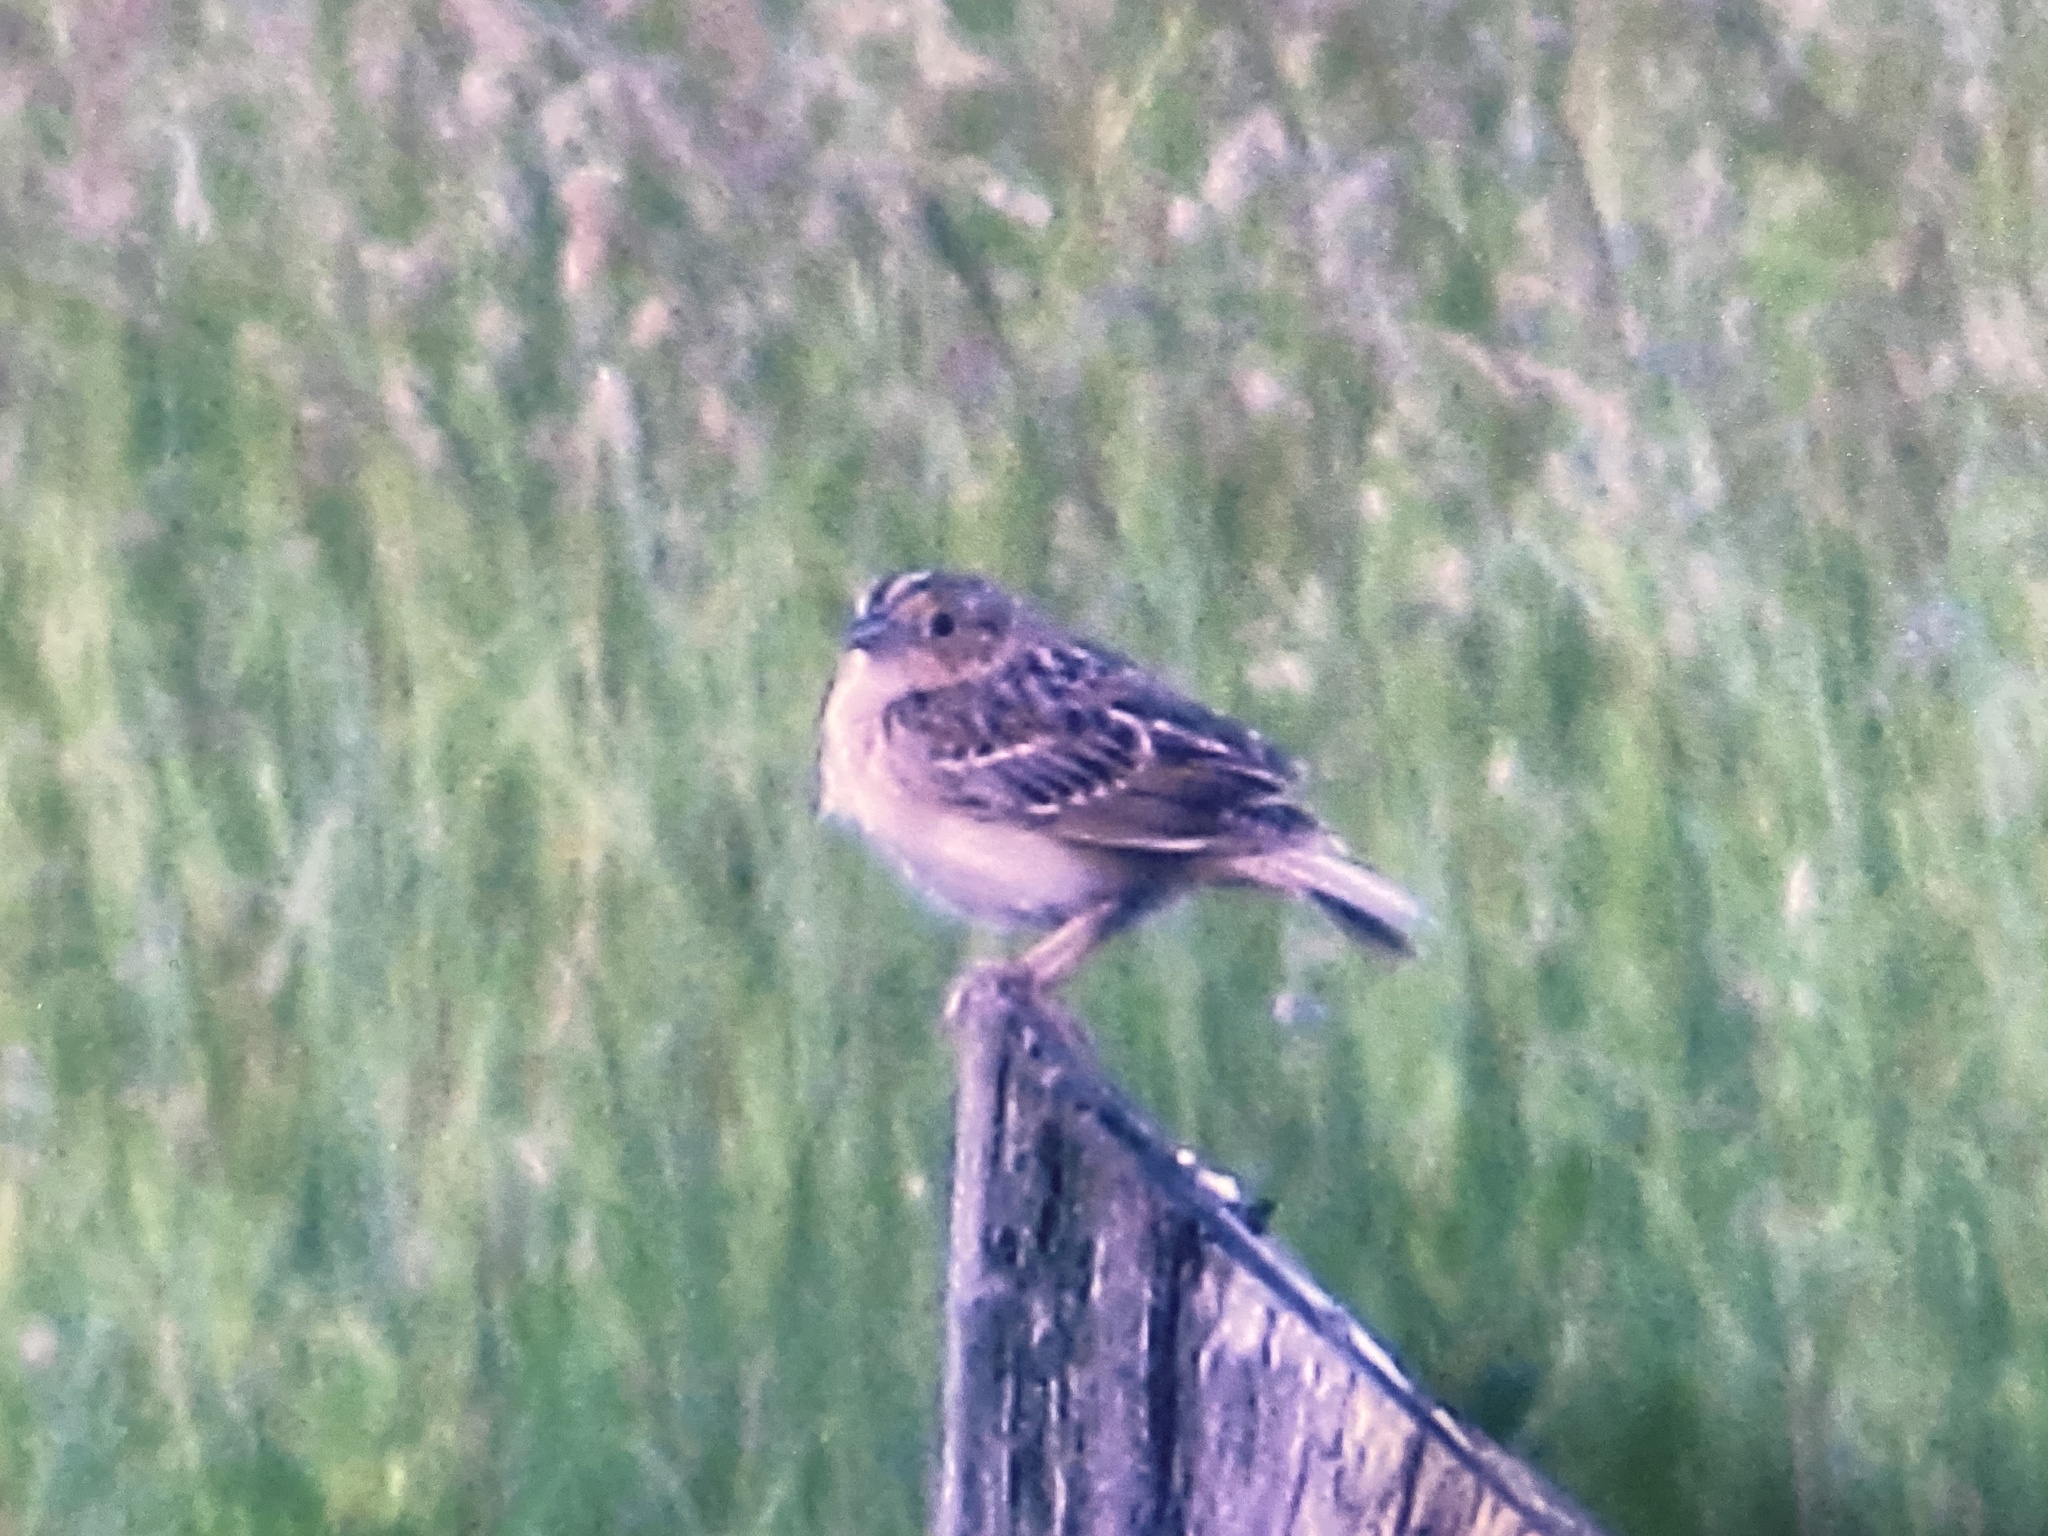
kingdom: Animalia
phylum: Chordata
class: Aves
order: Passeriformes
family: Passerellidae
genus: Ammodramus
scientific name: Ammodramus savannarum
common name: Grasshopper sparrow
